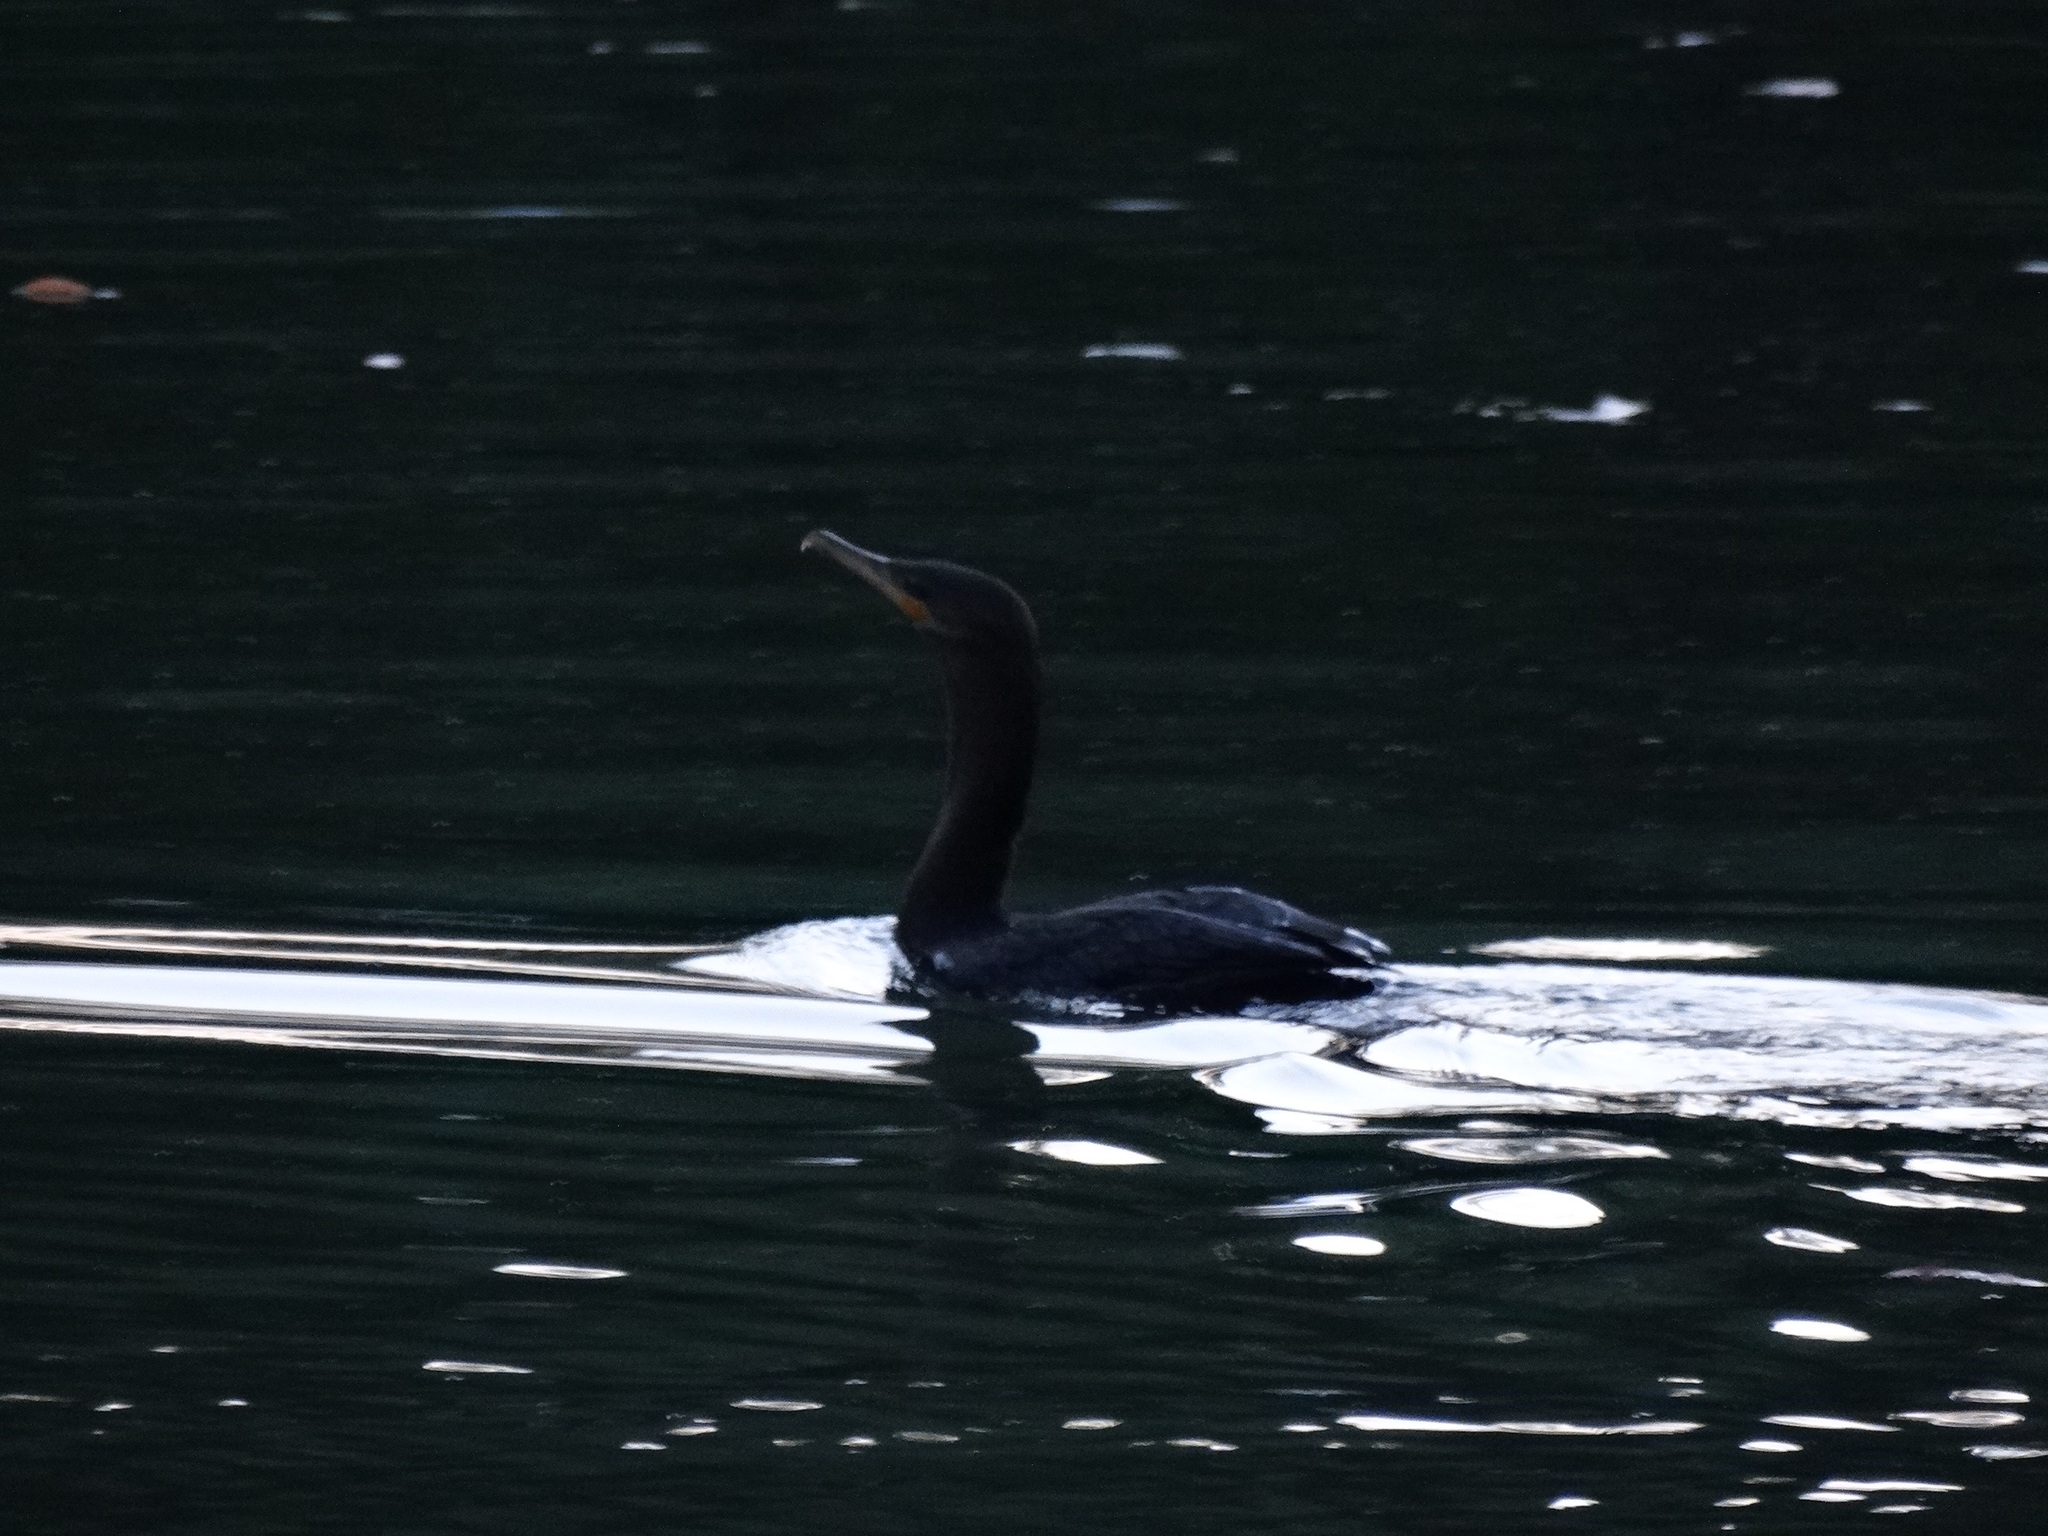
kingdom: Animalia
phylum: Chordata
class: Aves
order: Suliformes
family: Phalacrocoracidae
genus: Phalacrocorax
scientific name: Phalacrocorax brasilianus
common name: Neotropic cormorant
